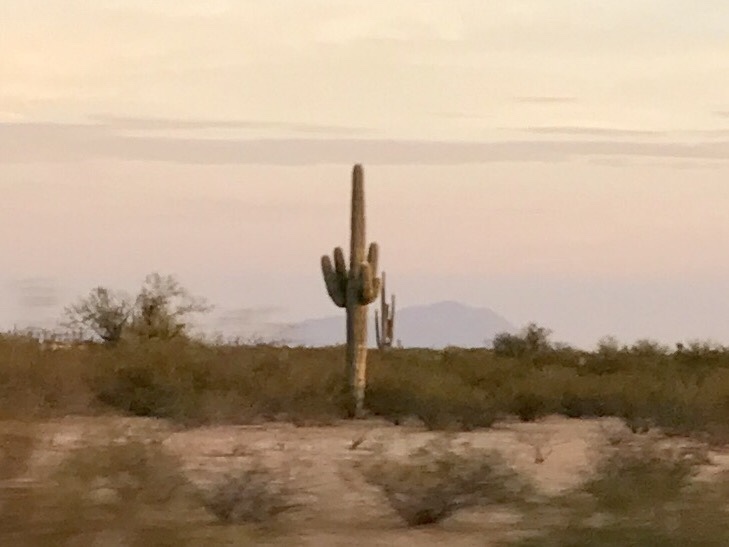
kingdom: Plantae
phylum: Tracheophyta
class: Magnoliopsida
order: Caryophyllales
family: Cactaceae
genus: Carnegiea
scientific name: Carnegiea gigantea
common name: Saguaro
